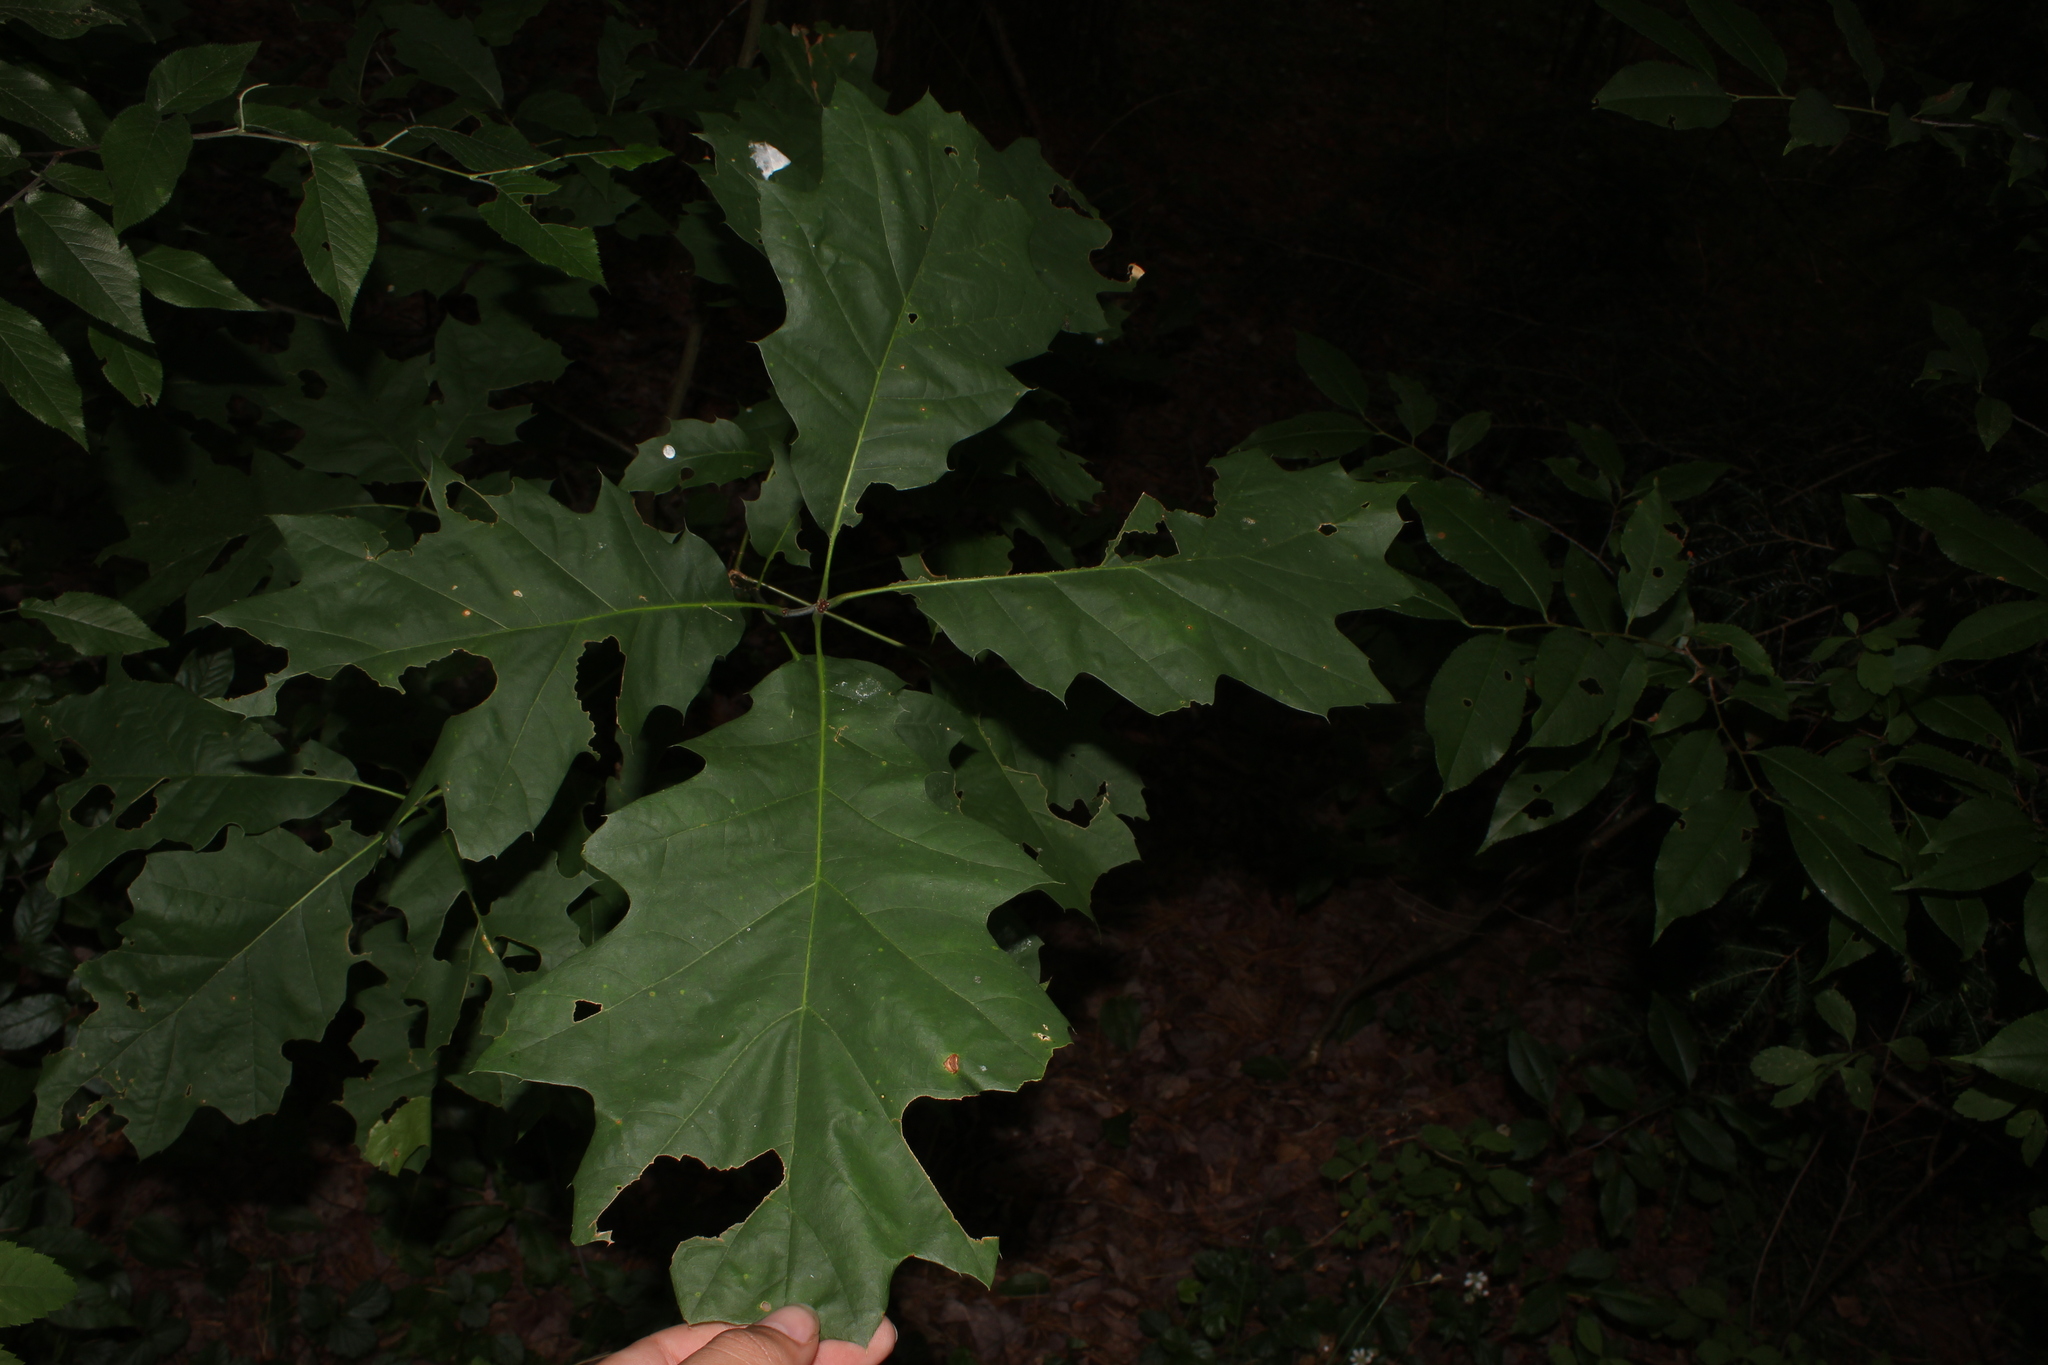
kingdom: Plantae
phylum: Tracheophyta
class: Magnoliopsida
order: Fagales
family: Fagaceae
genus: Quercus
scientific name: Quercus
